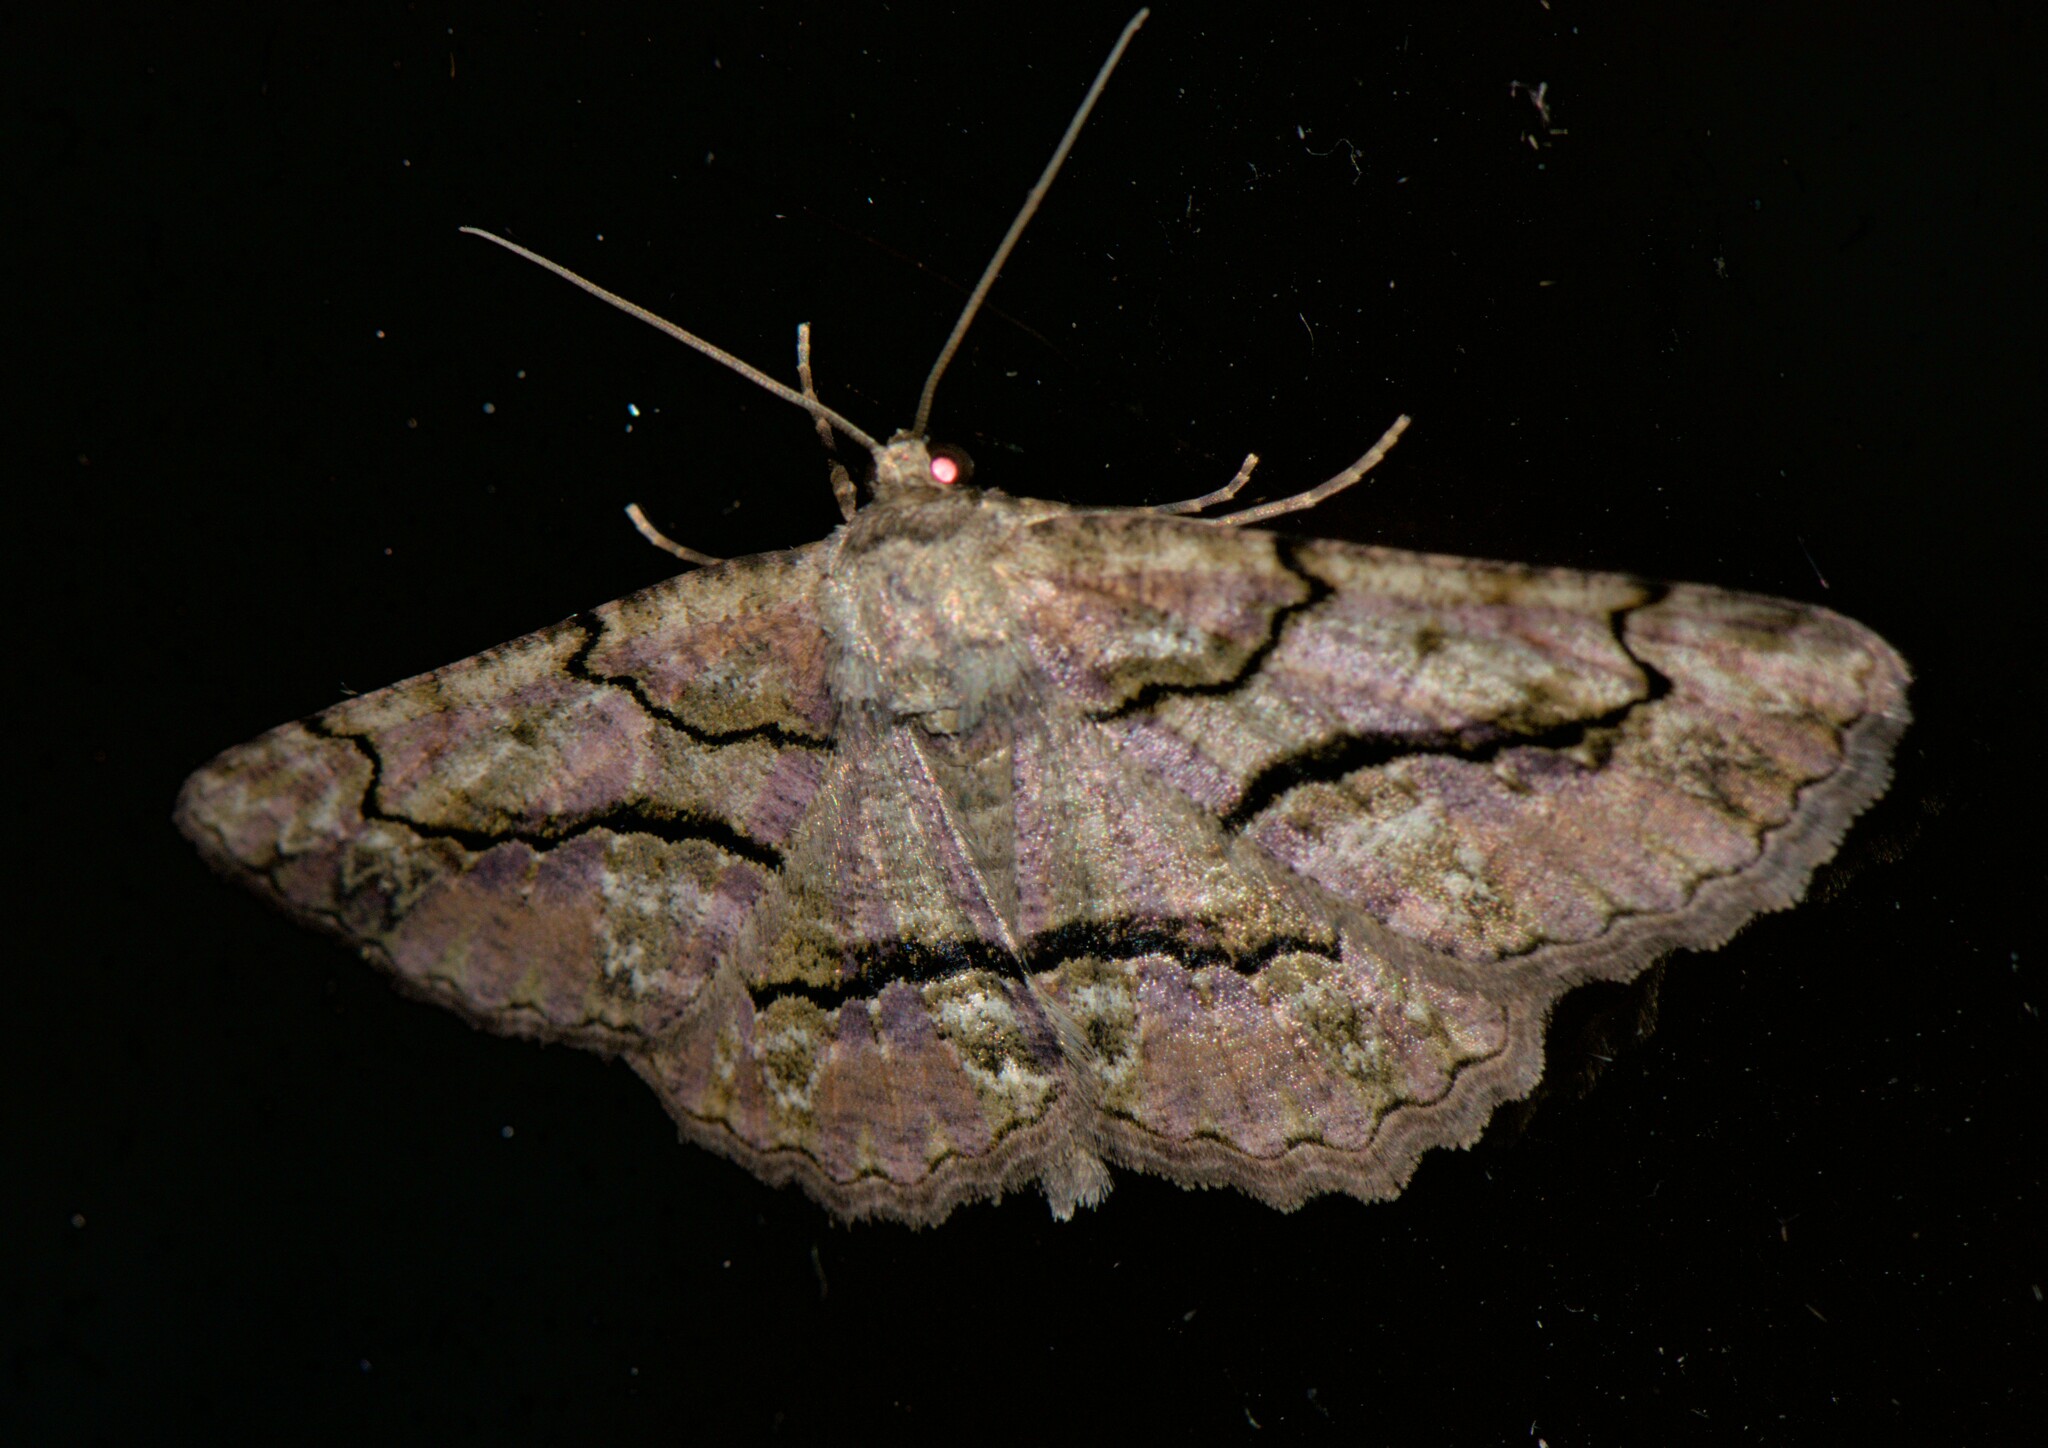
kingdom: Animalia
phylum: Arthropoda
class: Insecta
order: Lepidoptera
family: Geometridae
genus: Hirasa
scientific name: Hirasa scripturaria
